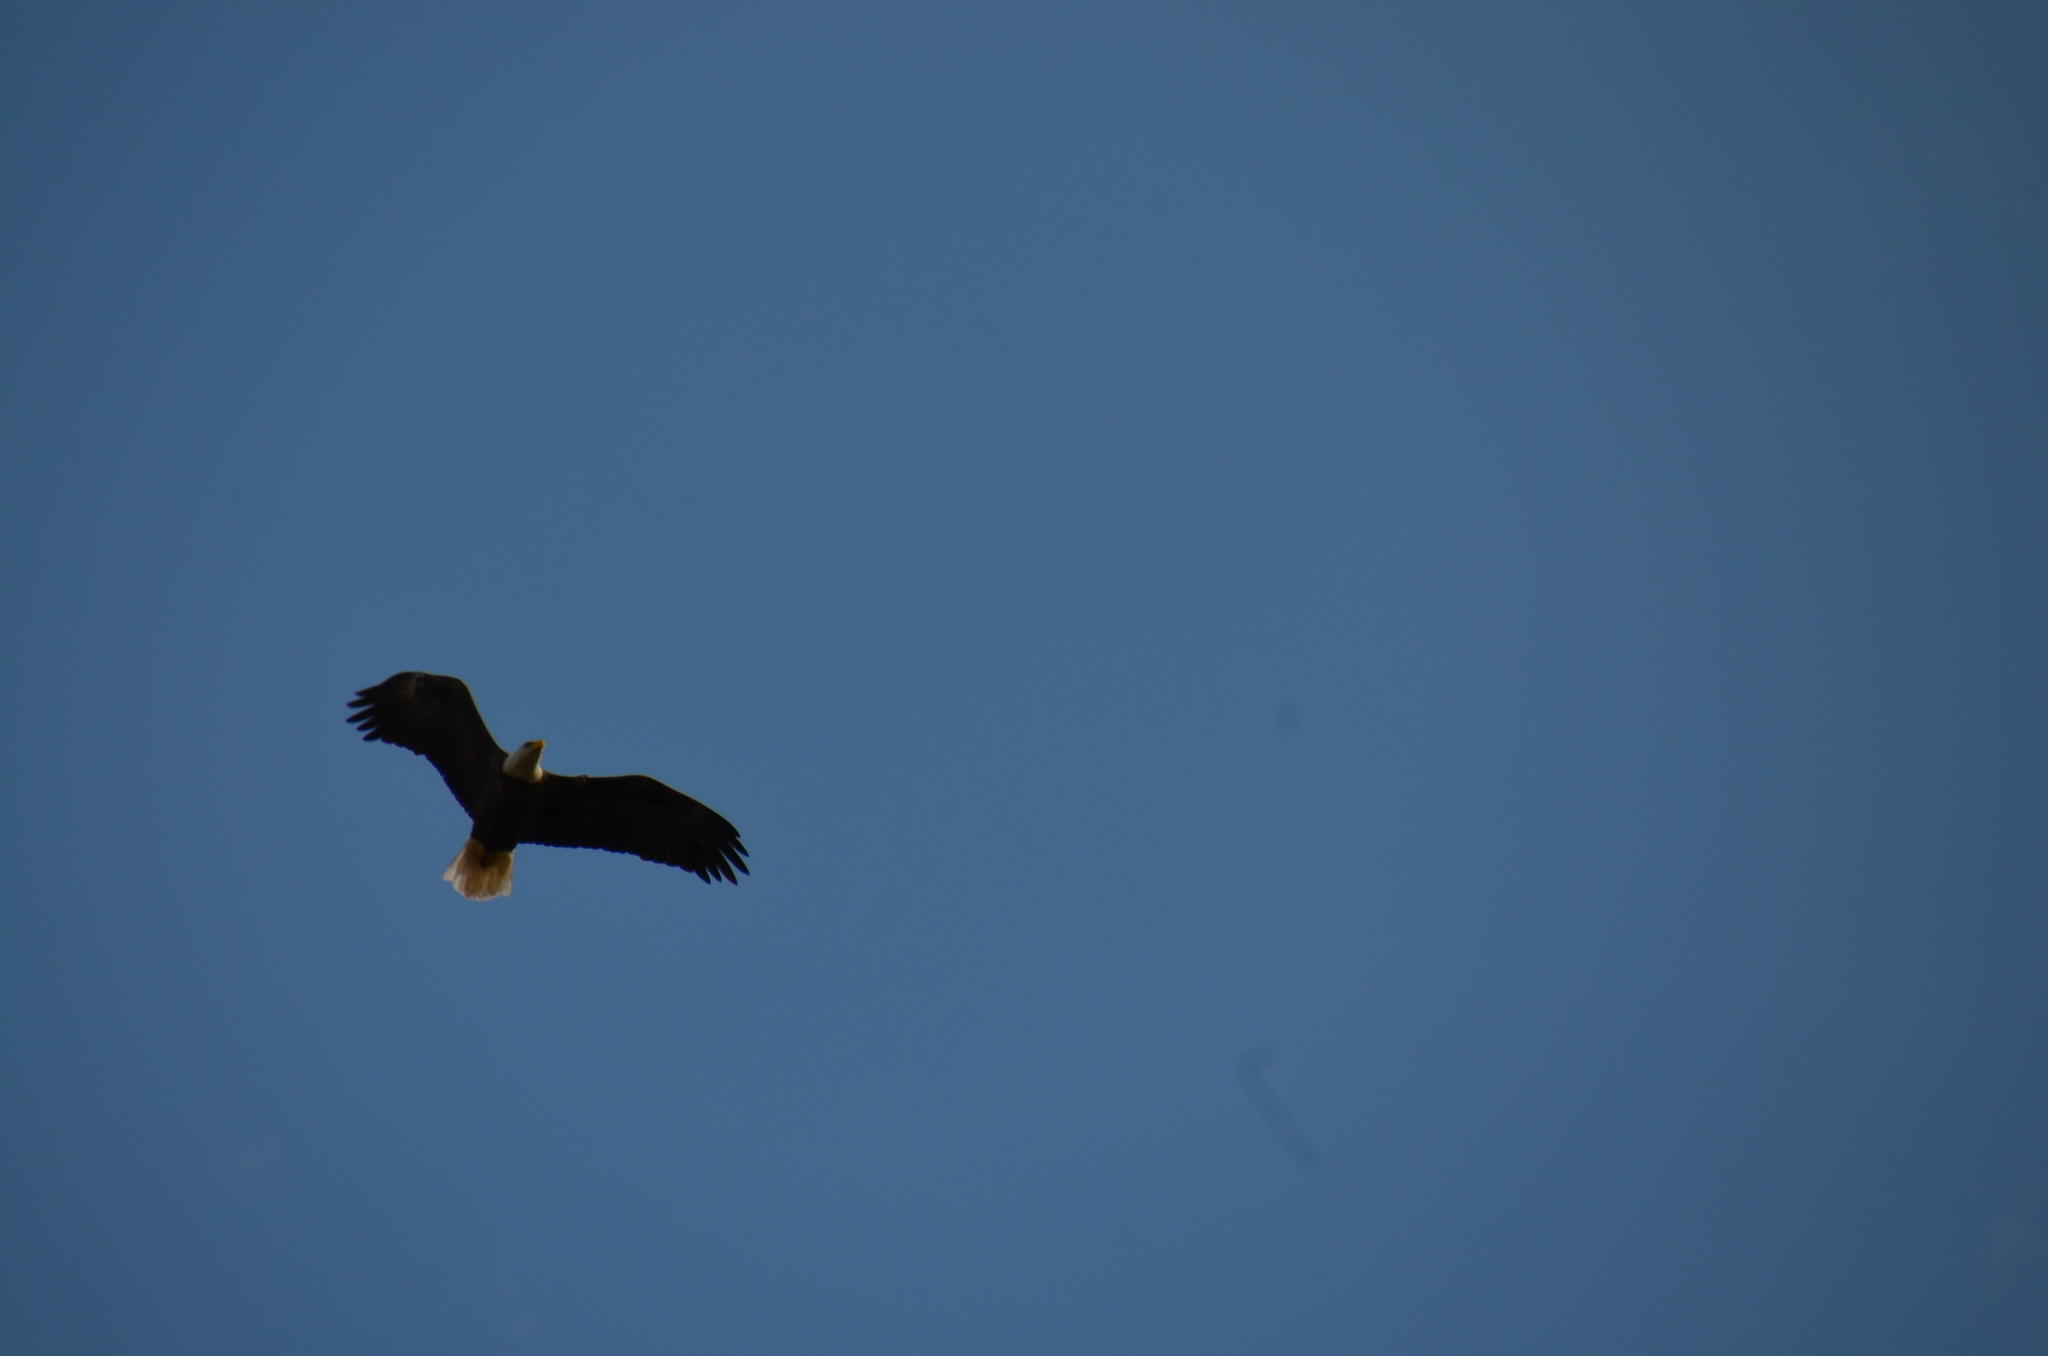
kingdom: Animalia
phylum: Chordata
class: Aves
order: Accipitriformes
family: Accipitridae
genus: Haliaeetus
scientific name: Haliaeetus leucocephalus
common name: Bald eagle
